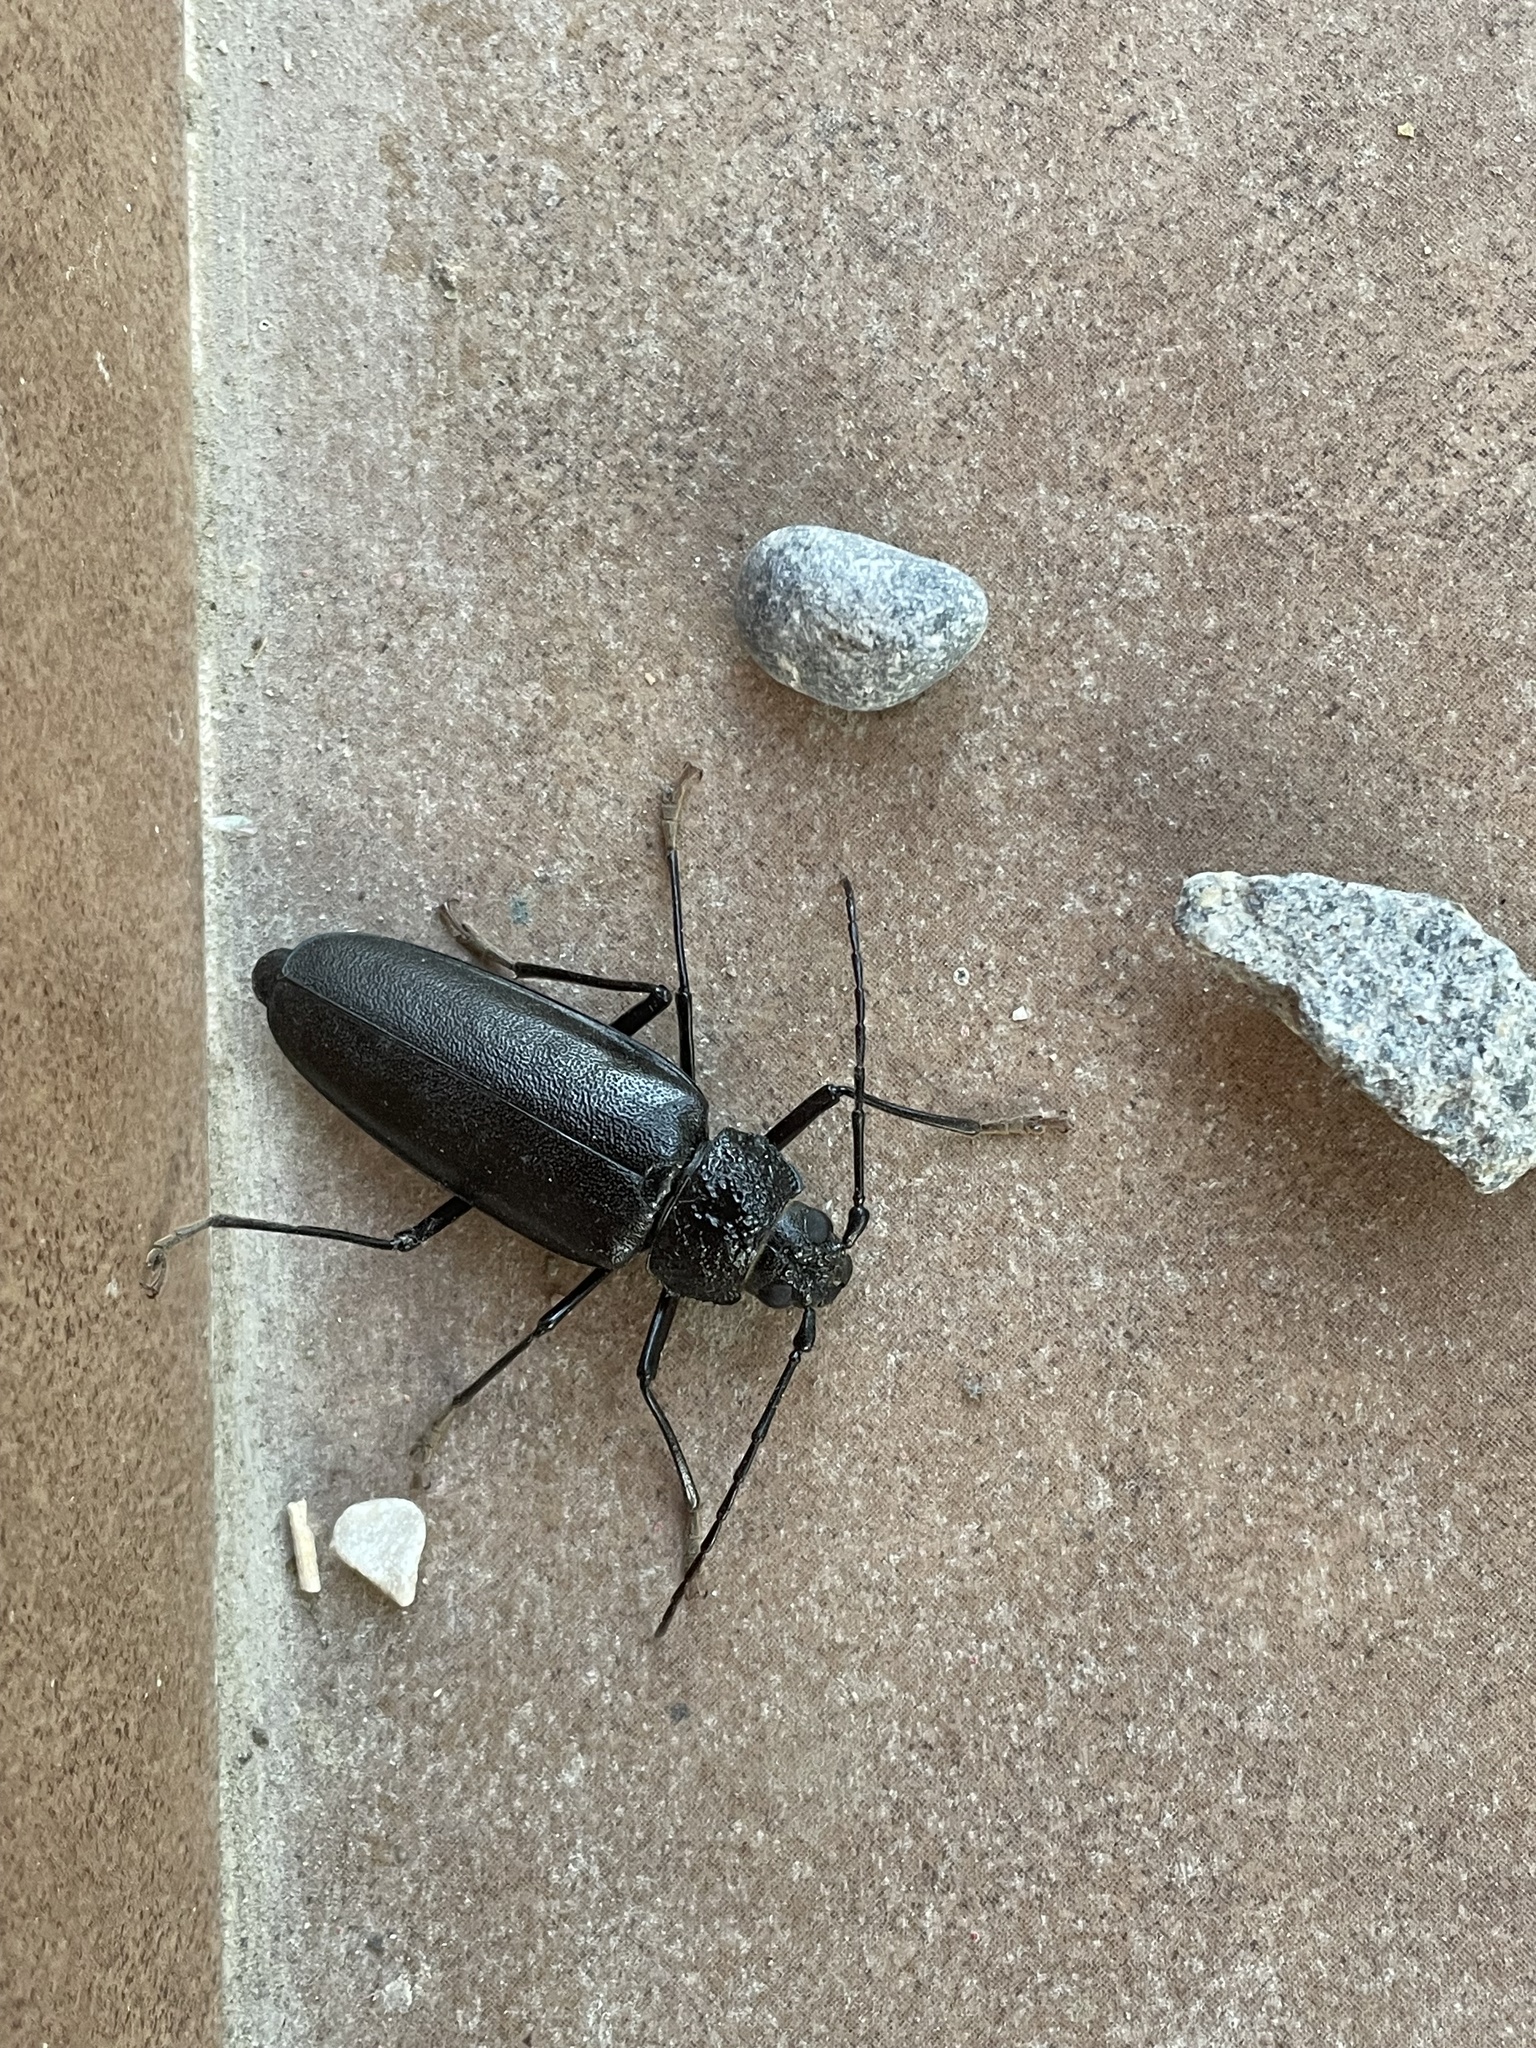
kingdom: Animalia
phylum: Arthropoda
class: Insecta
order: Coleoptera
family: Cerambycidae
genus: Ergates
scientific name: Ergates faber
